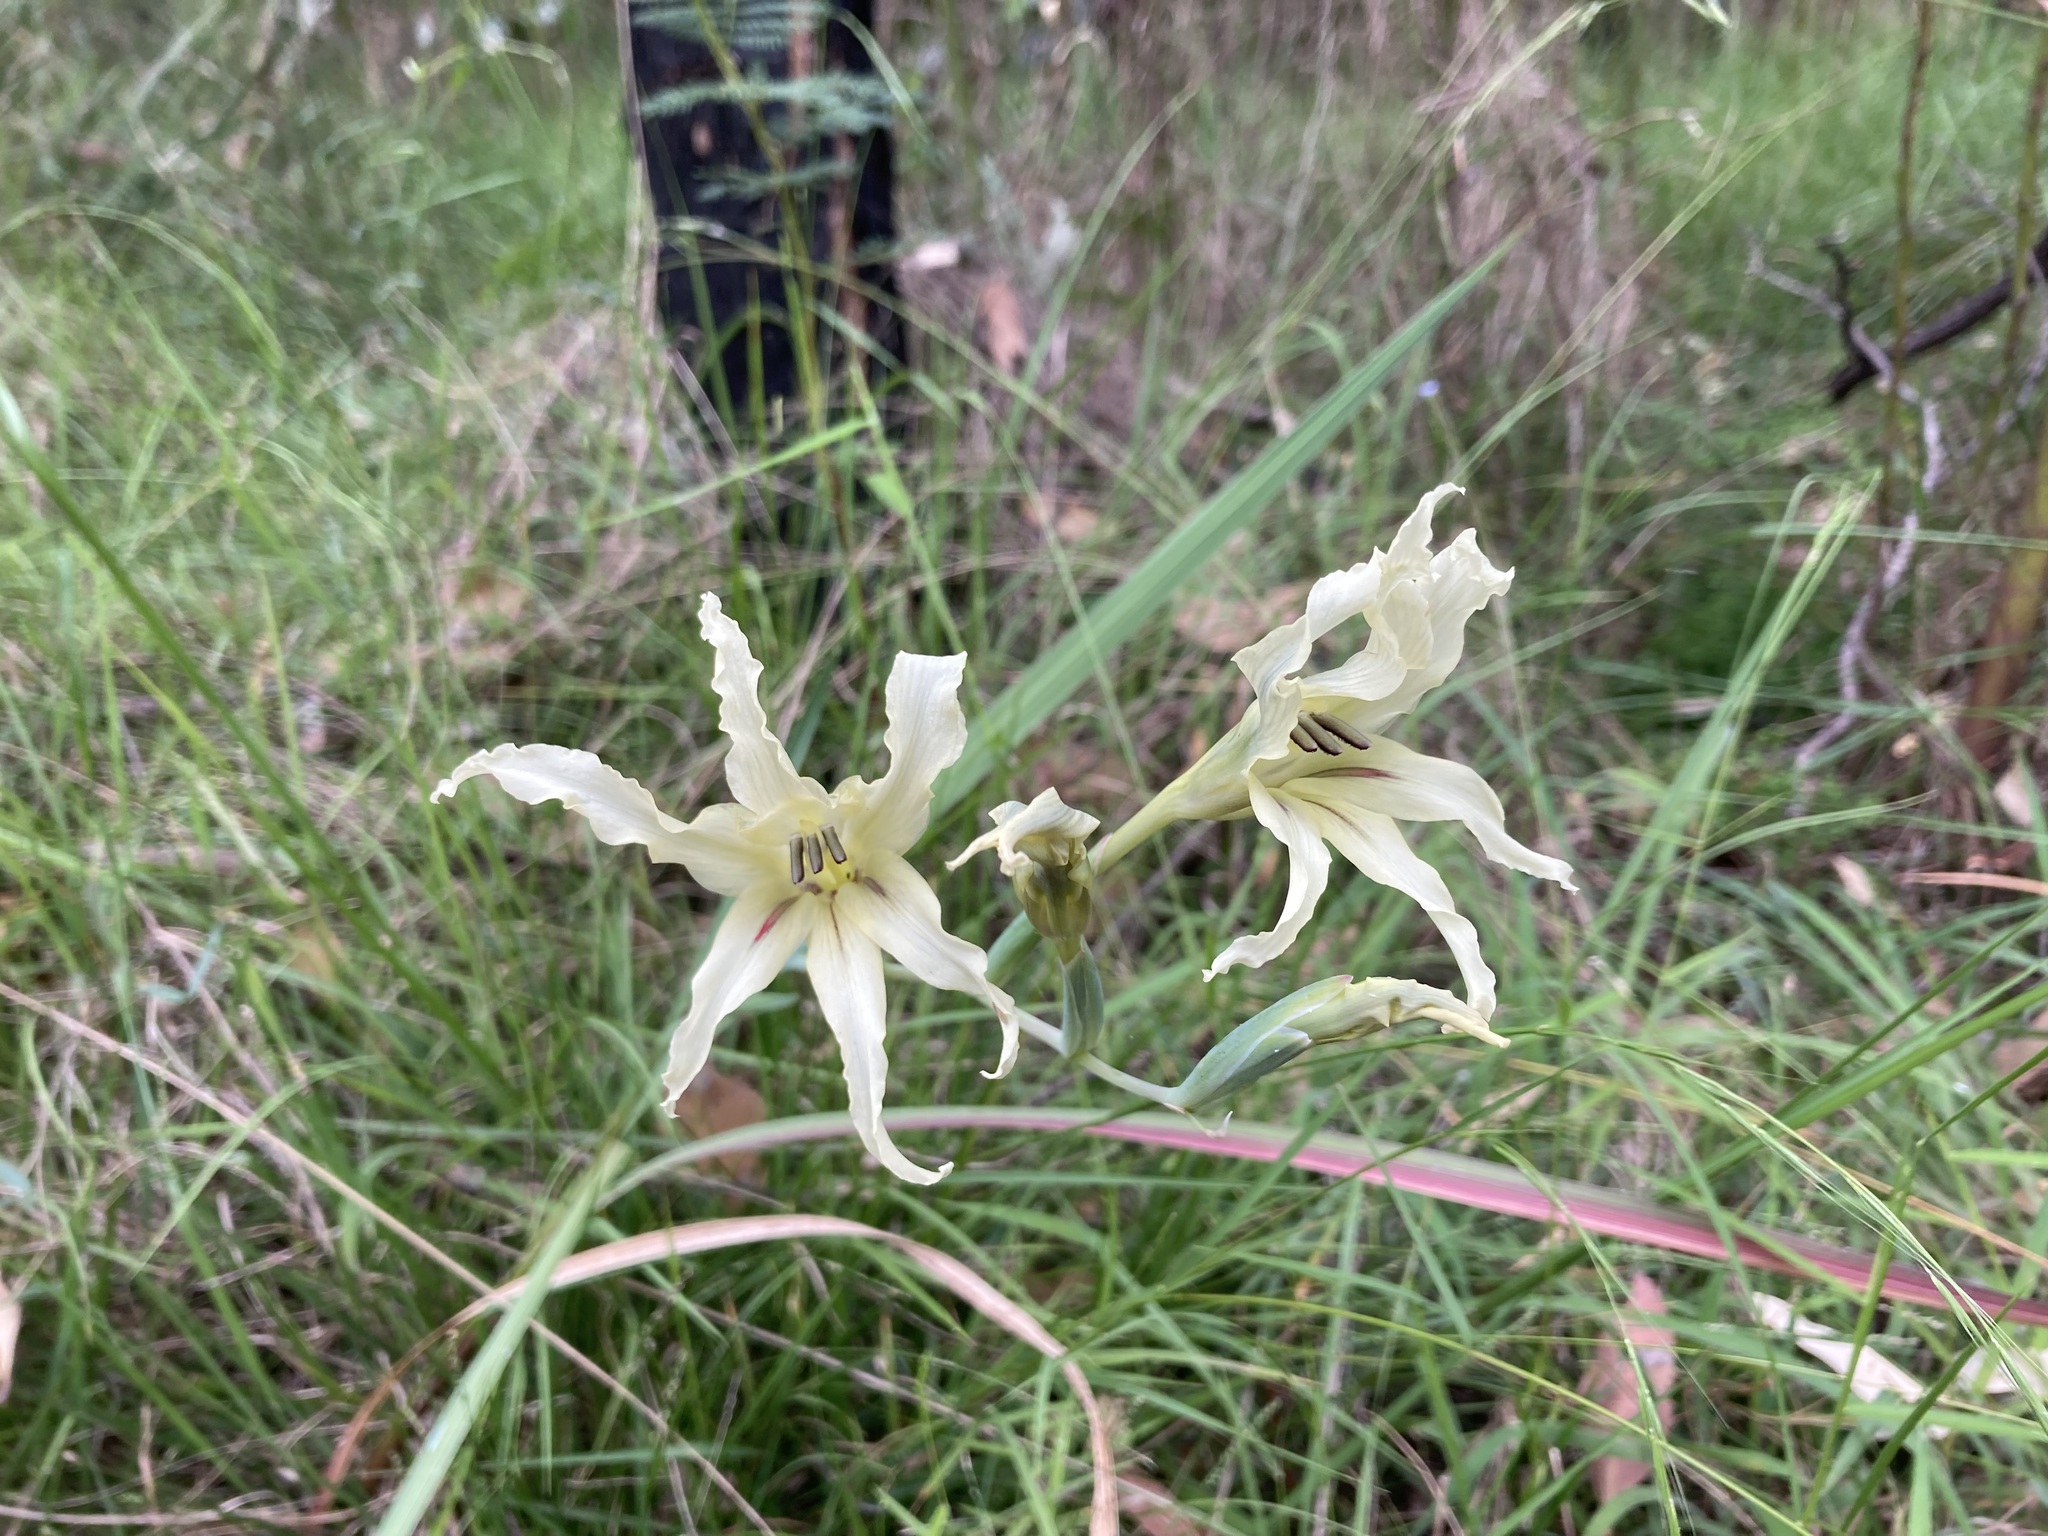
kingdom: Plantae
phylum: Tracheophyta
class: Liliopsida
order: Asparagales
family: Iridaceae
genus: Gladiolus
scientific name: Gladiolus undulatus
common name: Large painted-lady
